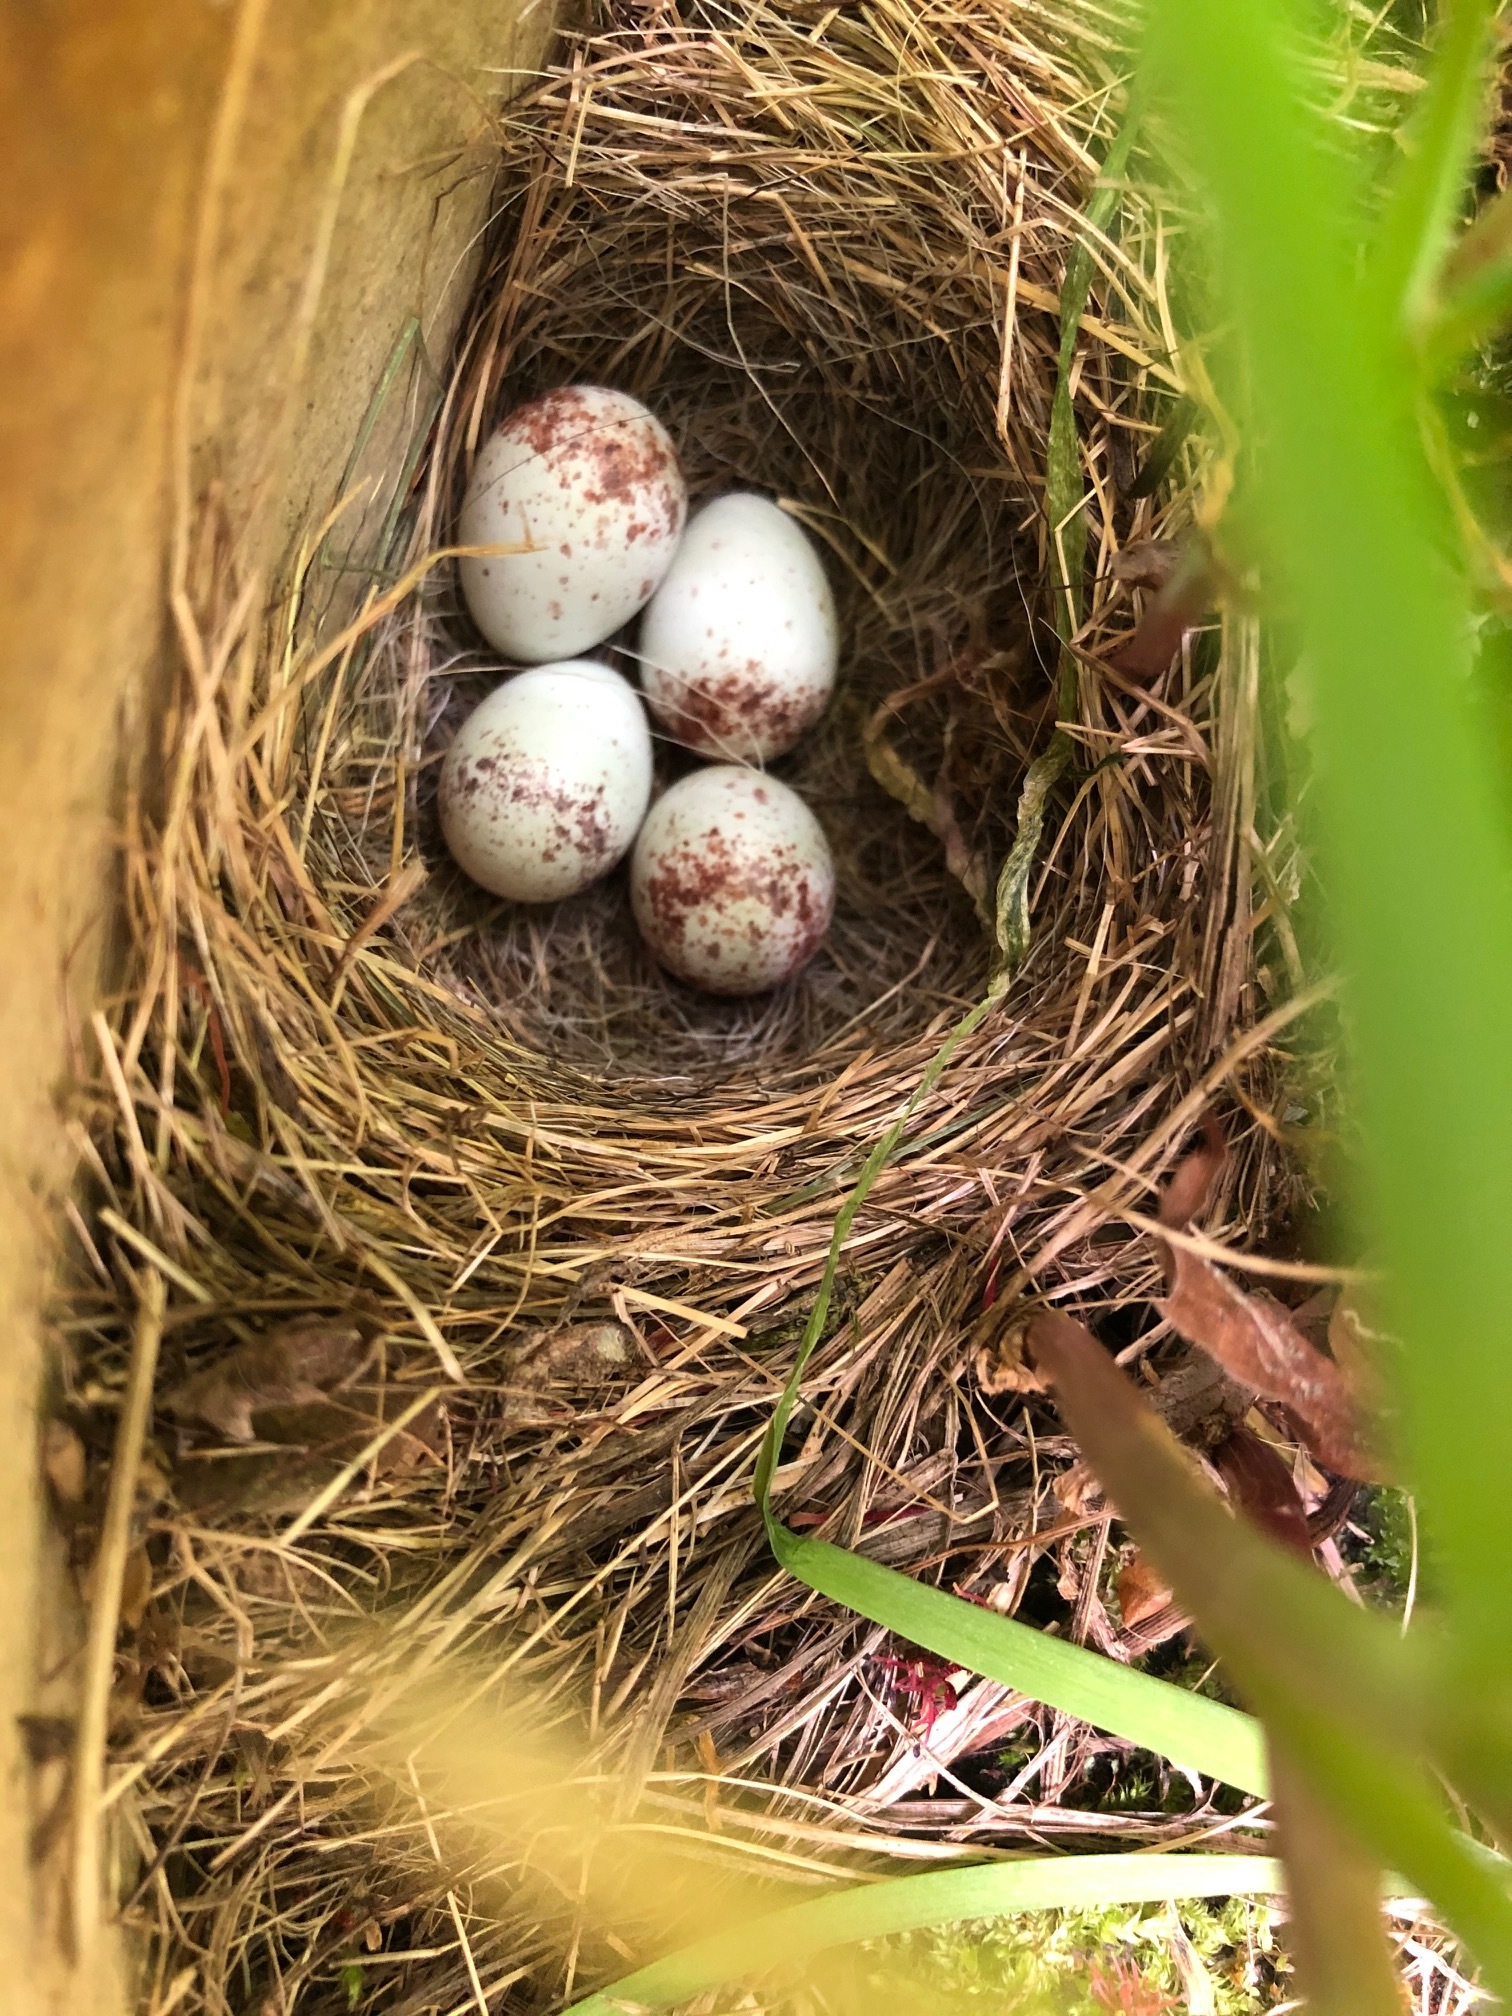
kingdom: Animalia
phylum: Chordata
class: Aves
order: Passeriformes
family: Passerellidae
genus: Junco
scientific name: Junco hyemalis
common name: Dark-eyed junco
